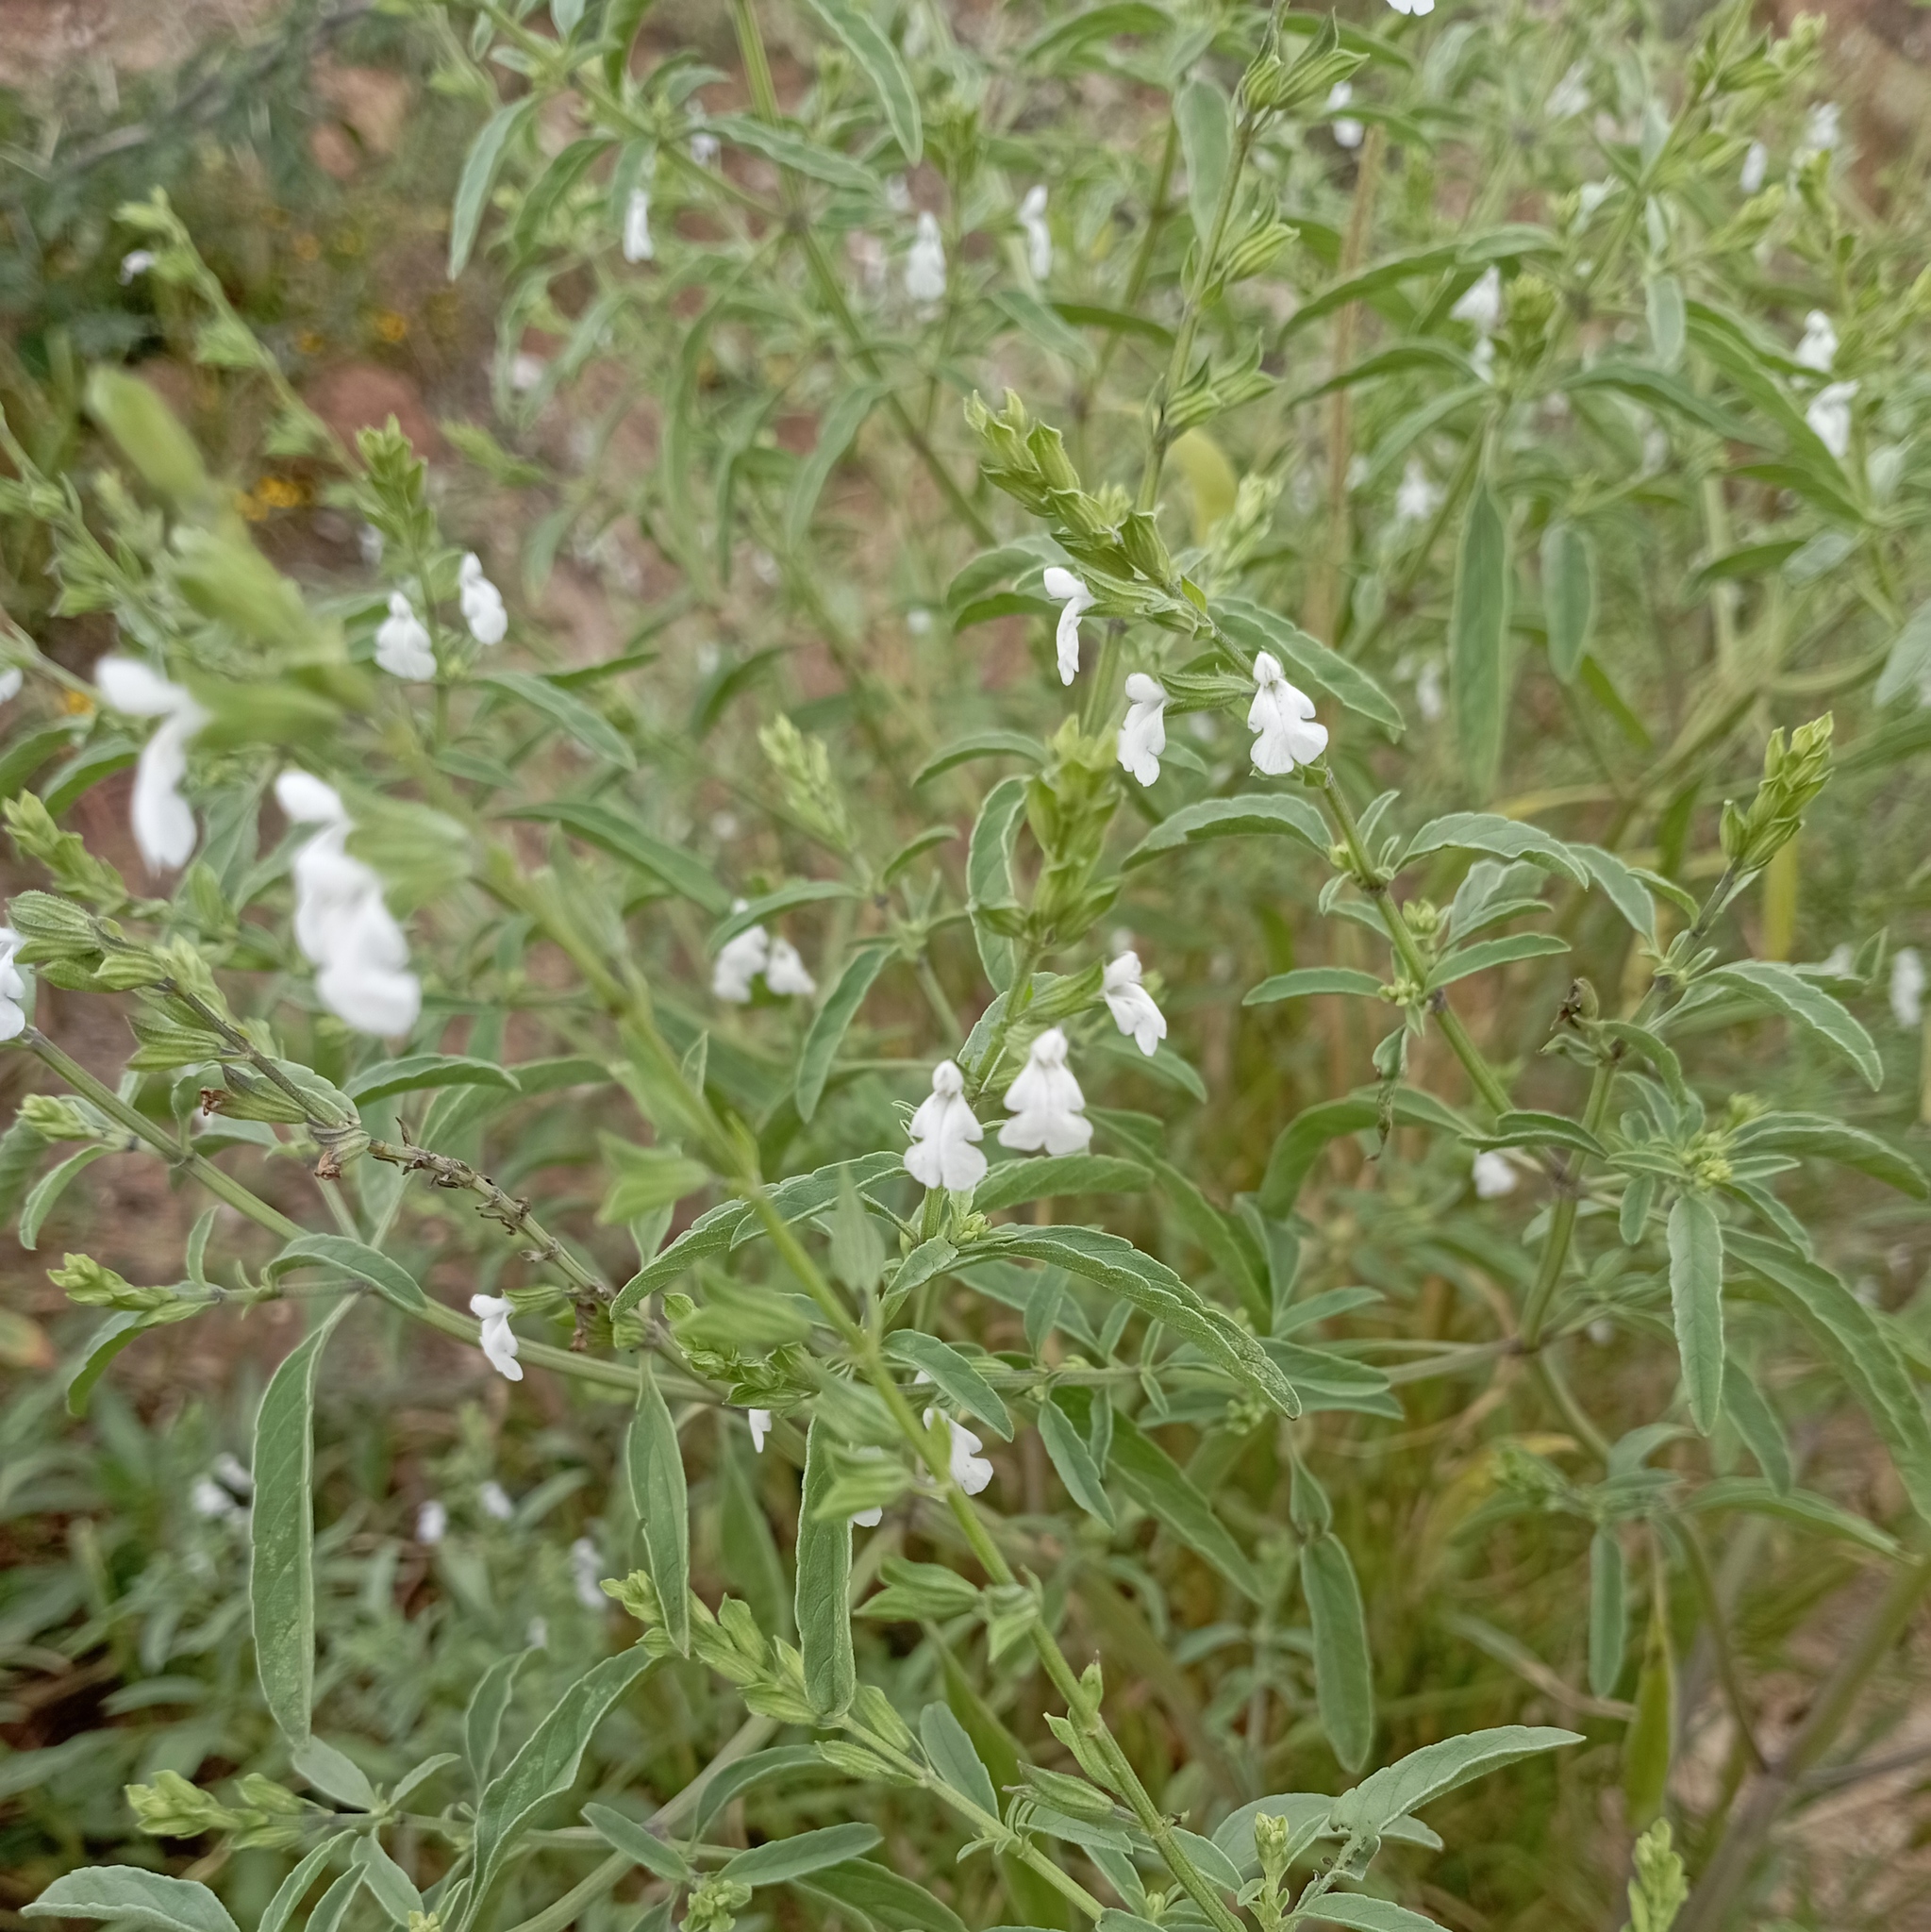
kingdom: Plantae
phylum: Tracheophyta
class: Magnoliopsida
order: Lamiales
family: Lamiaceae
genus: Salvia
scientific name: Salvia reflexa
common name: Mintweed
